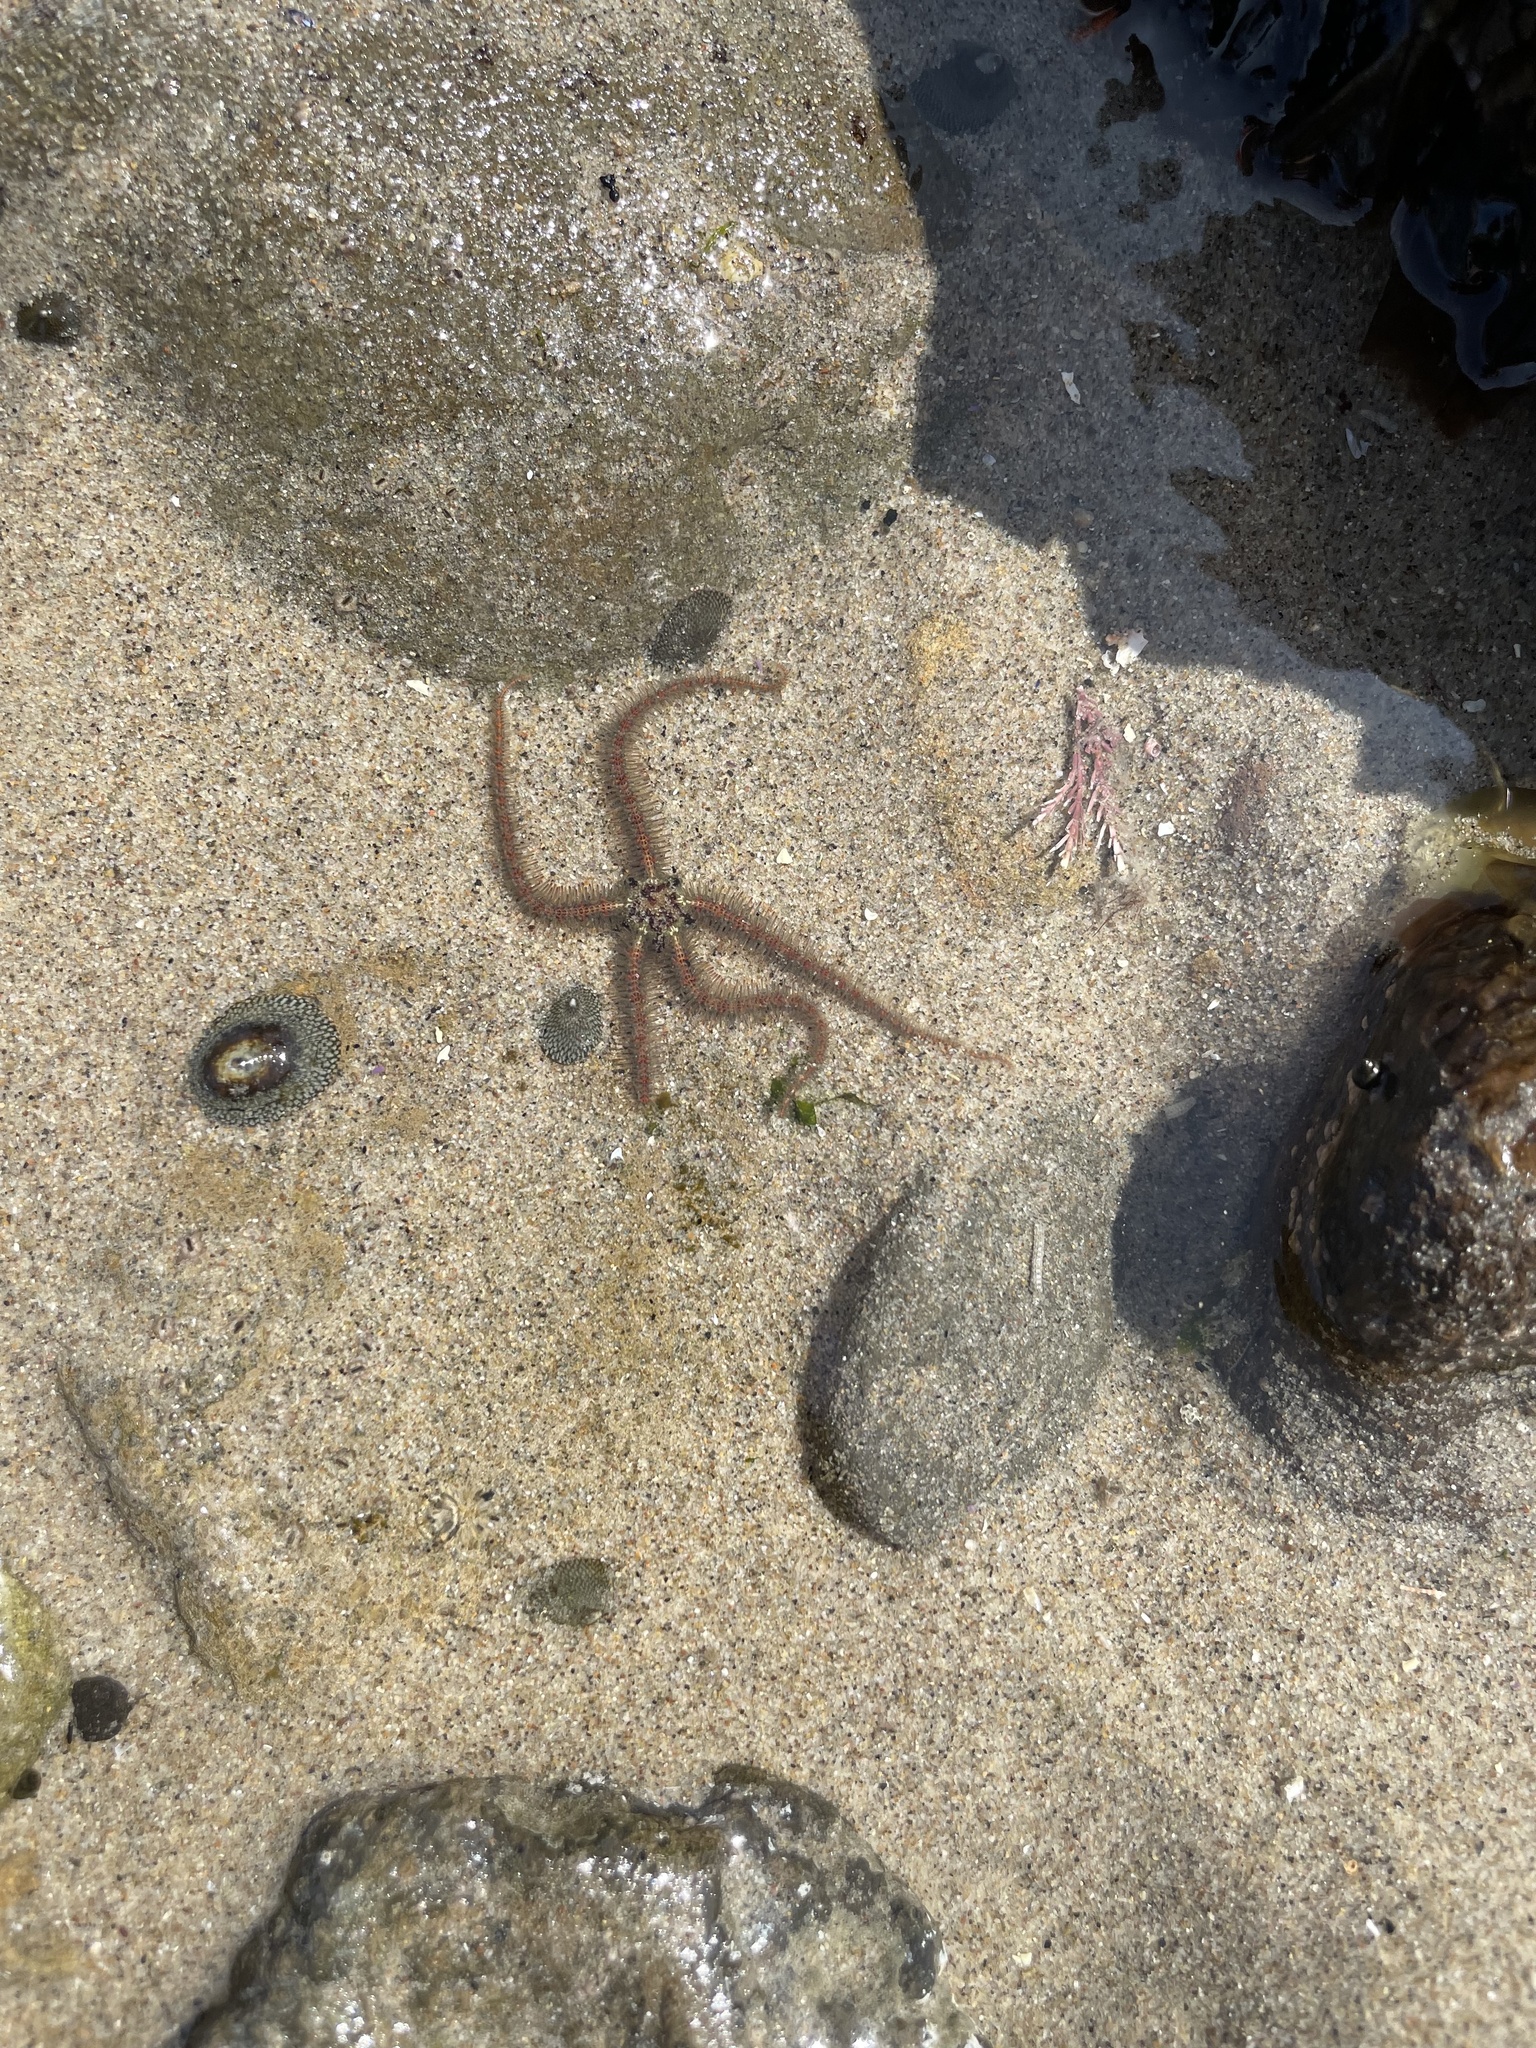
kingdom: Animalia
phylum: Echinodermata
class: Ophiuroidea
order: Amphilepidida
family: Ophiotrichidae
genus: Ophiothrix
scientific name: Ophiothrix spiculata
